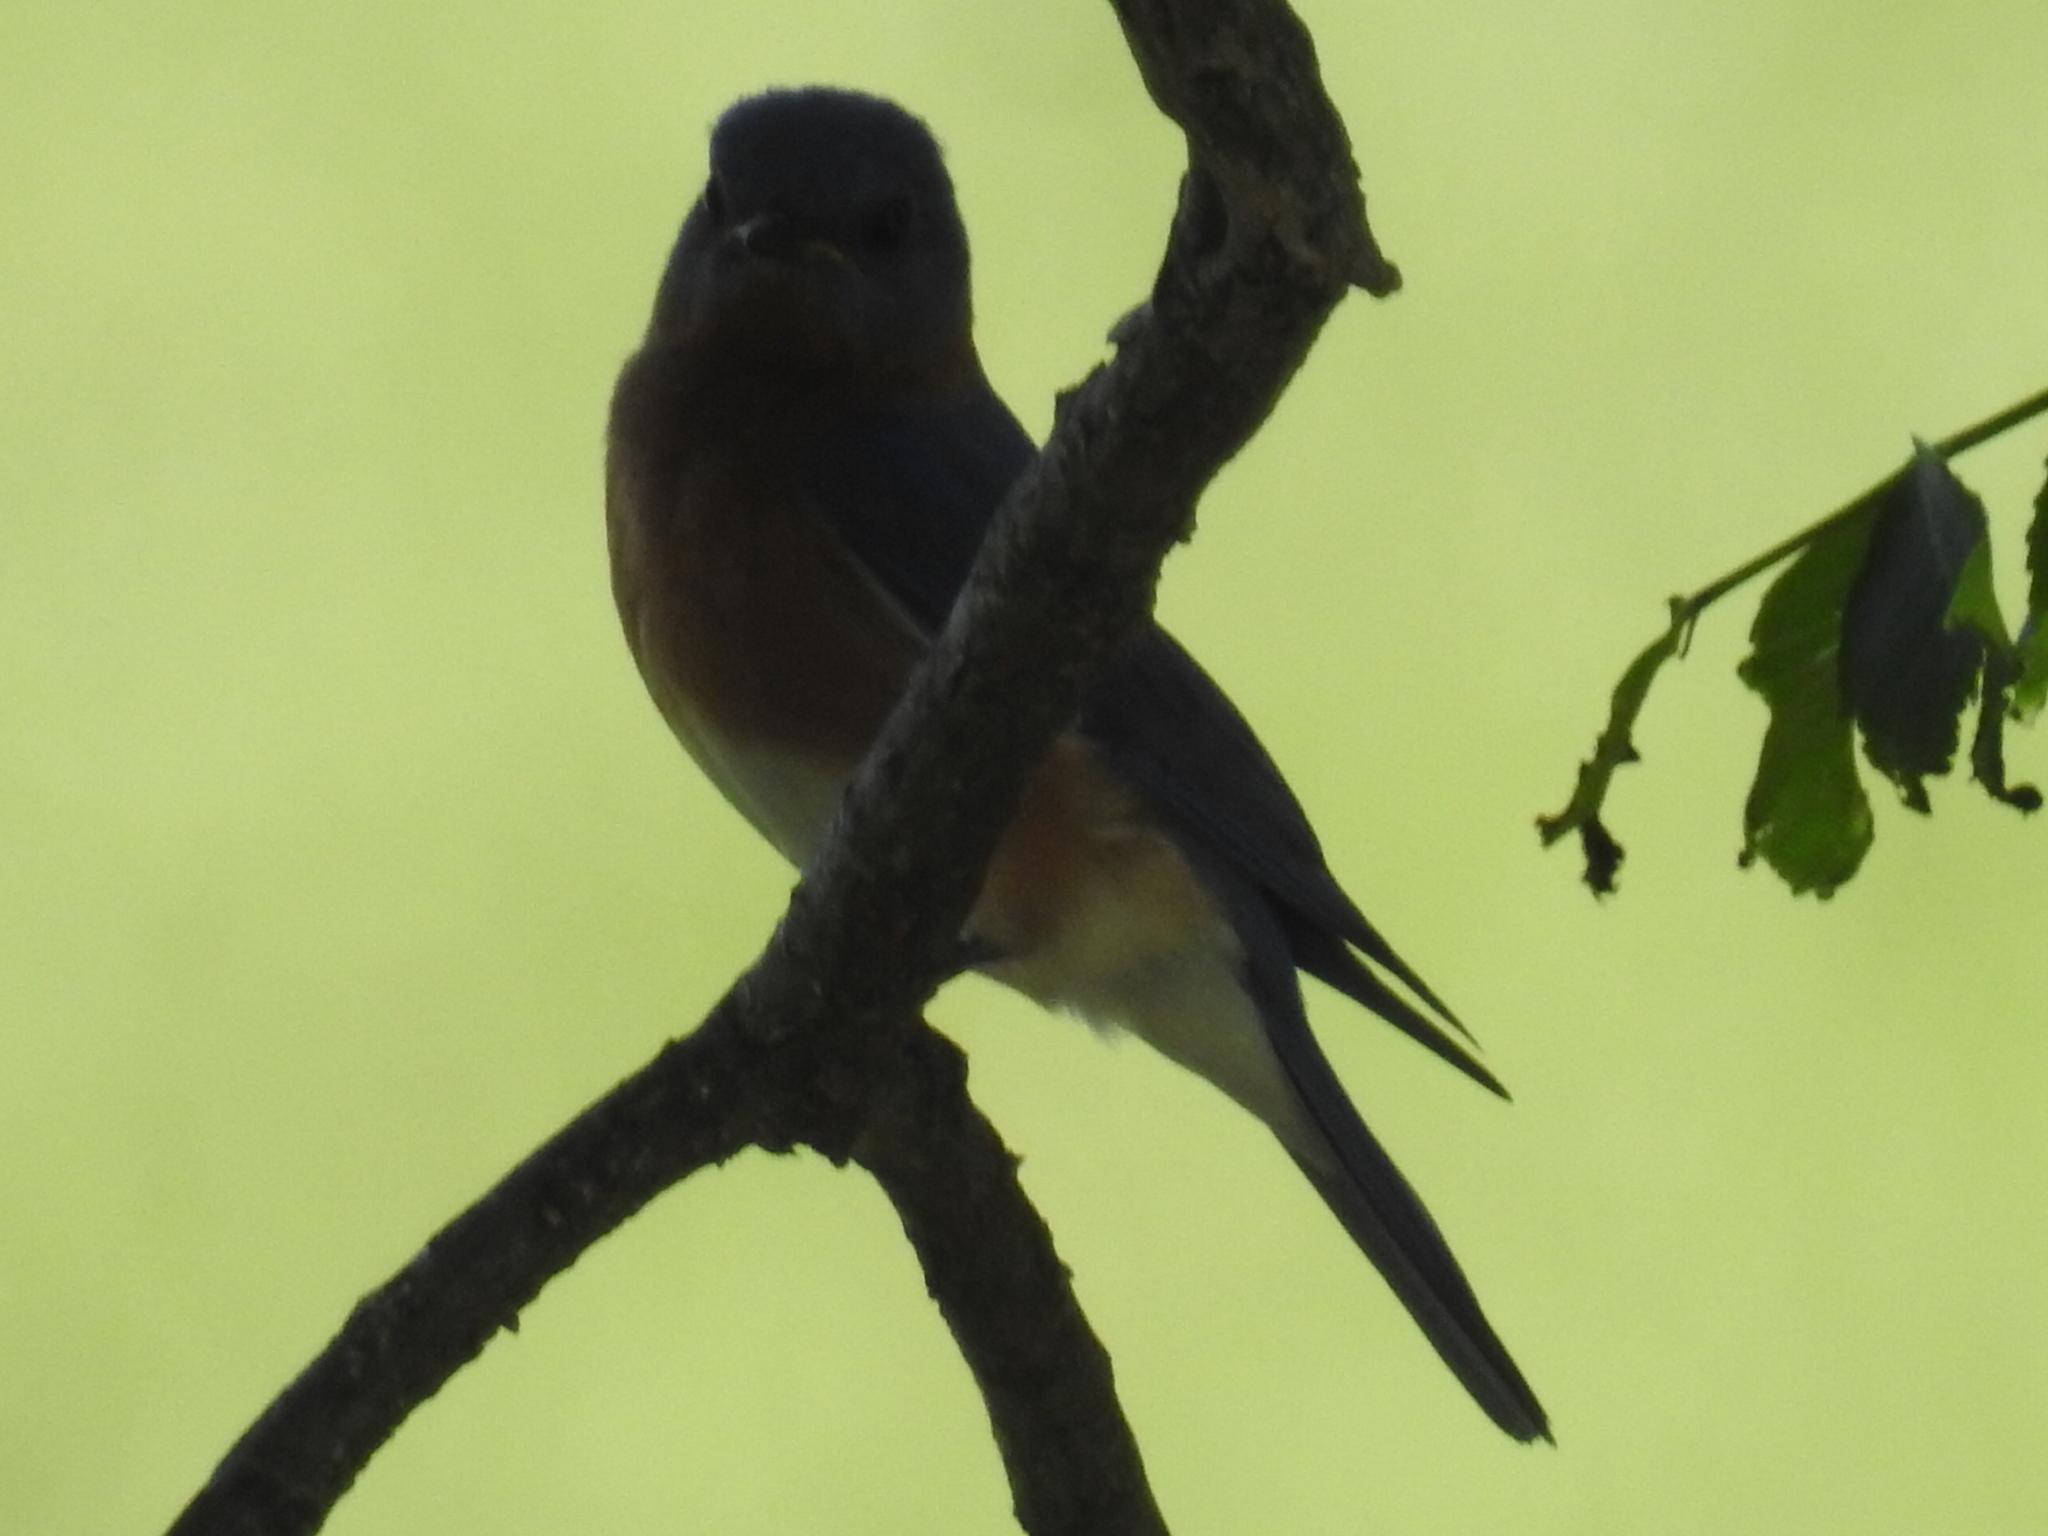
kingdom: Animalia
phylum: Chordata
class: Aves
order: Passeriformes
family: Turdidae
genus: Sialia
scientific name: Sialia sialis
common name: Eastern bluebird
